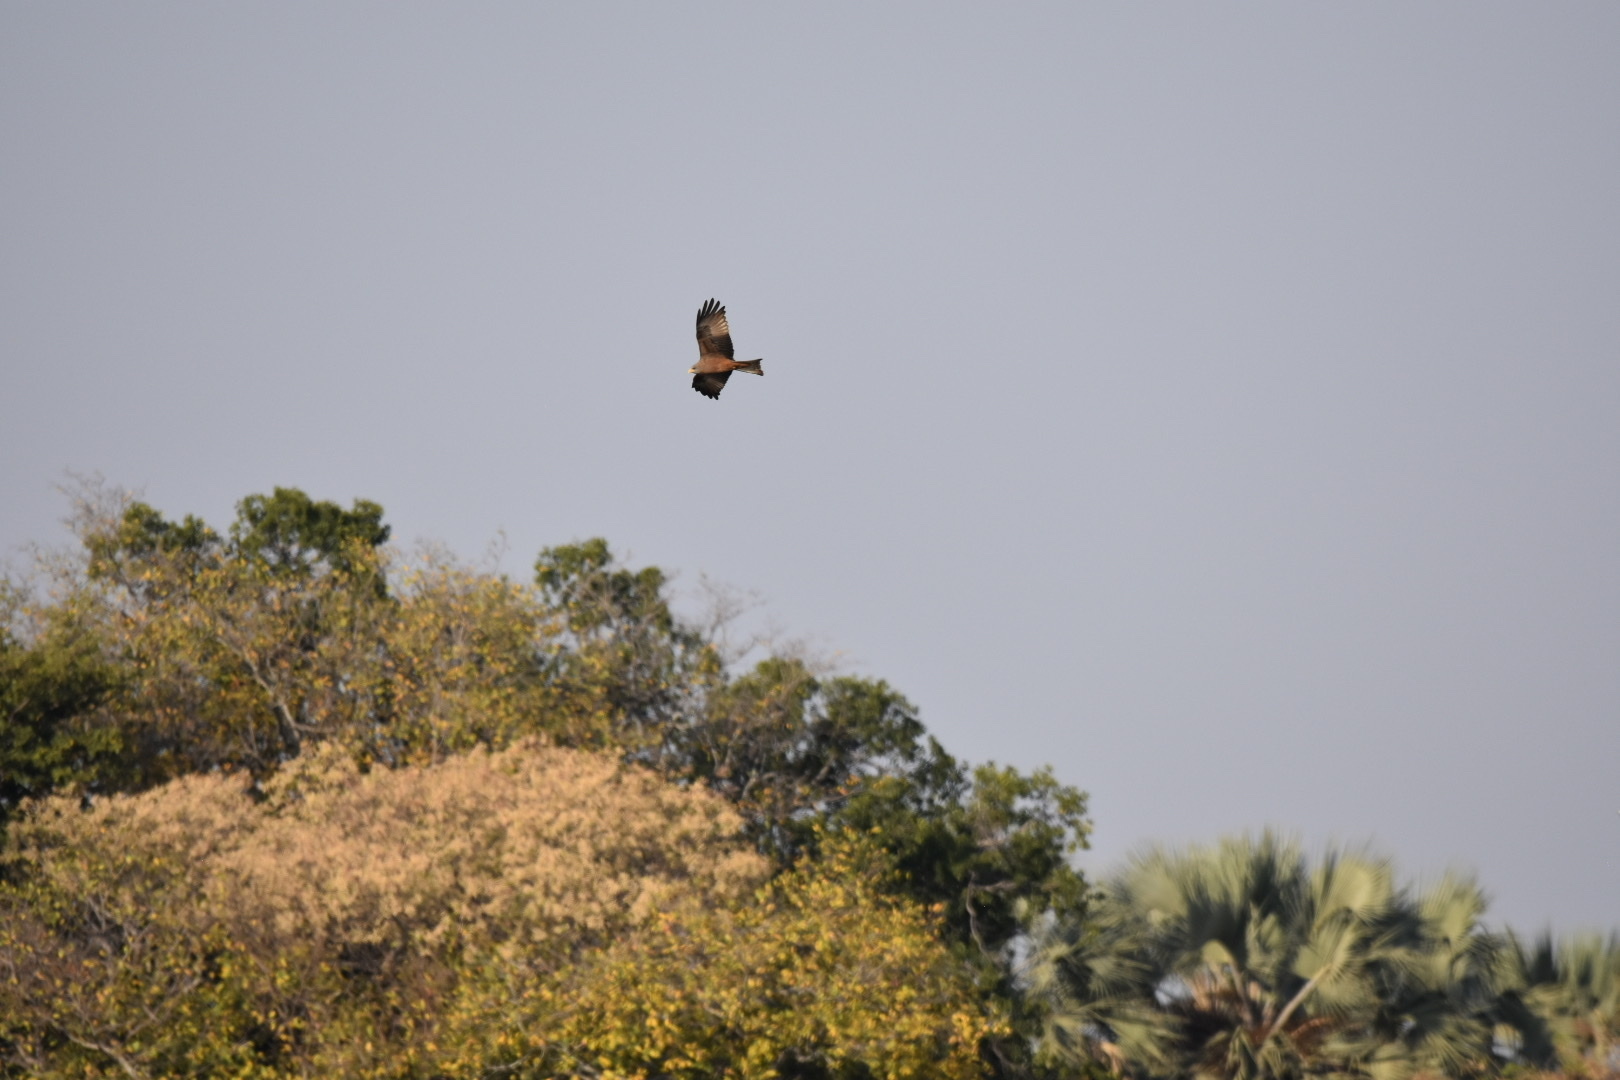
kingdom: Animalia
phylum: Chordata
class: Aves
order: Accipitriformes
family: Accipitridae
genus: Milvus
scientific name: Milvus migrans
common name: Black kite
